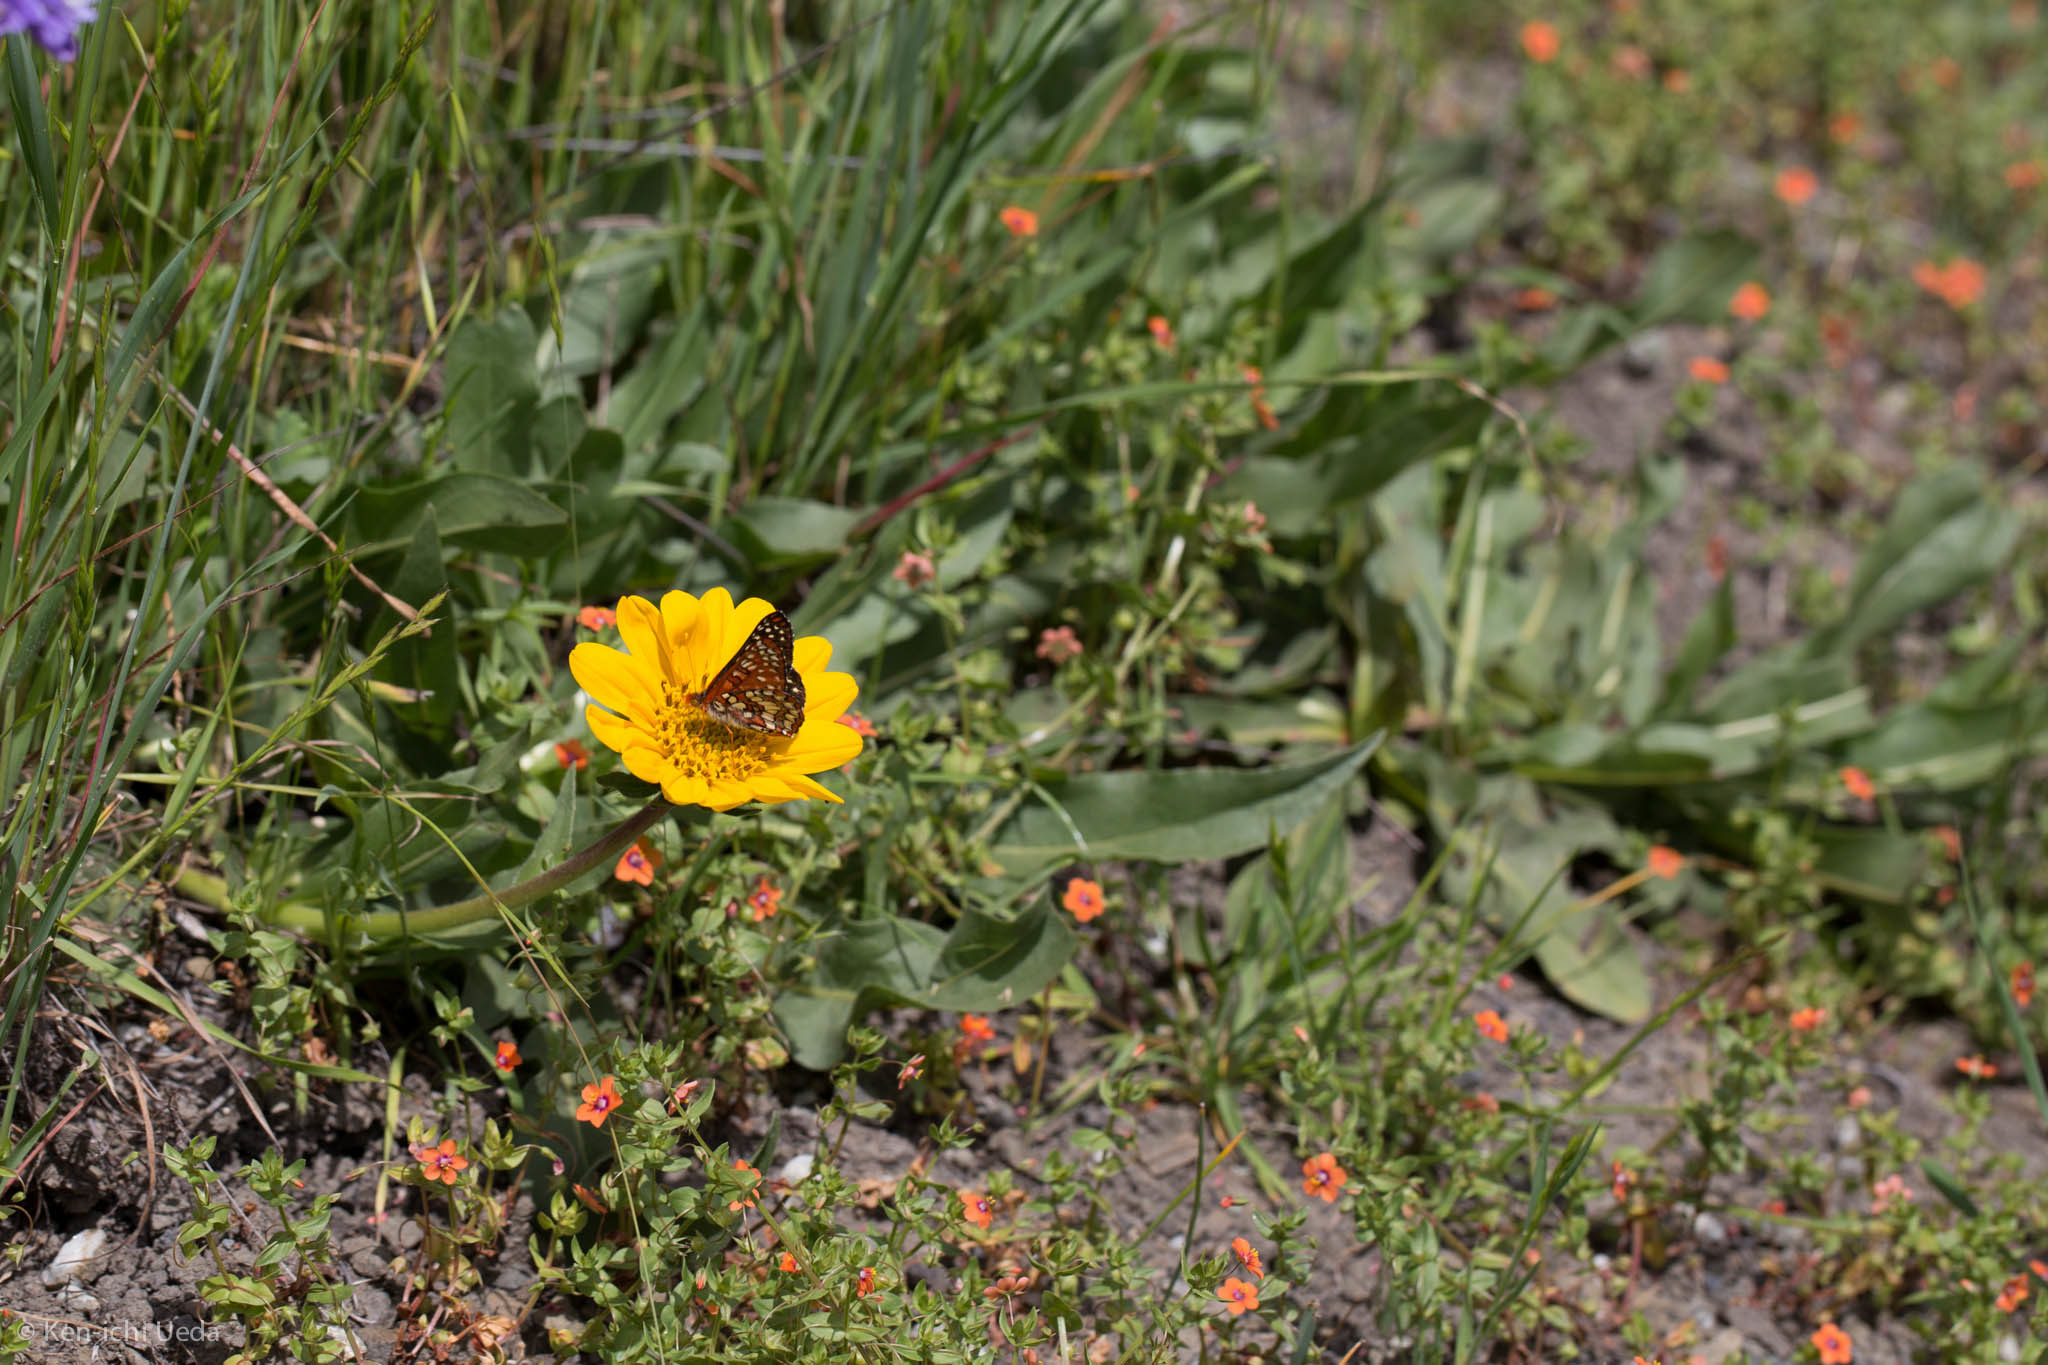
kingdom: Plantae
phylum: Tracheophyta
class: Magnoliopsida
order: Asterales
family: Asteraceae
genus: Wyethia
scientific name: Wyethia angustifolia
